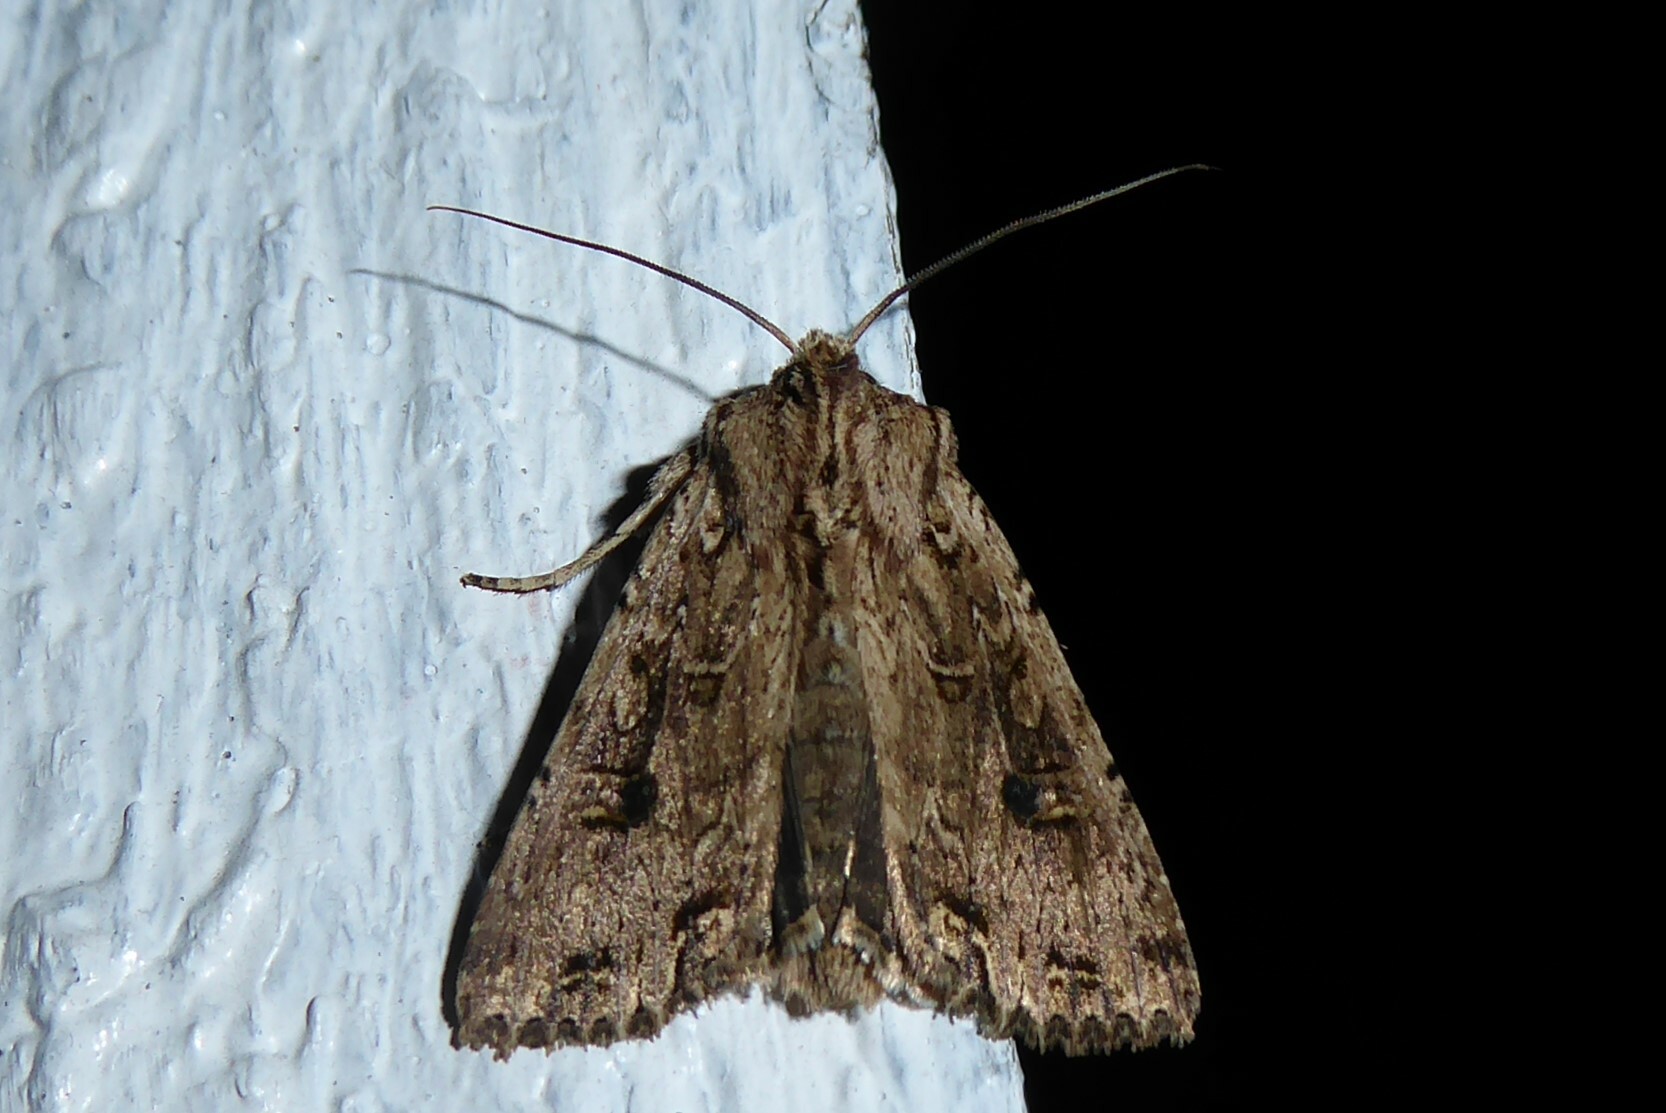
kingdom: Animalia
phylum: Arthropoda
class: Insecta
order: Lepidoptera
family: Noctuidae
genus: Ichneutica
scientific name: Ichneutica lignana
